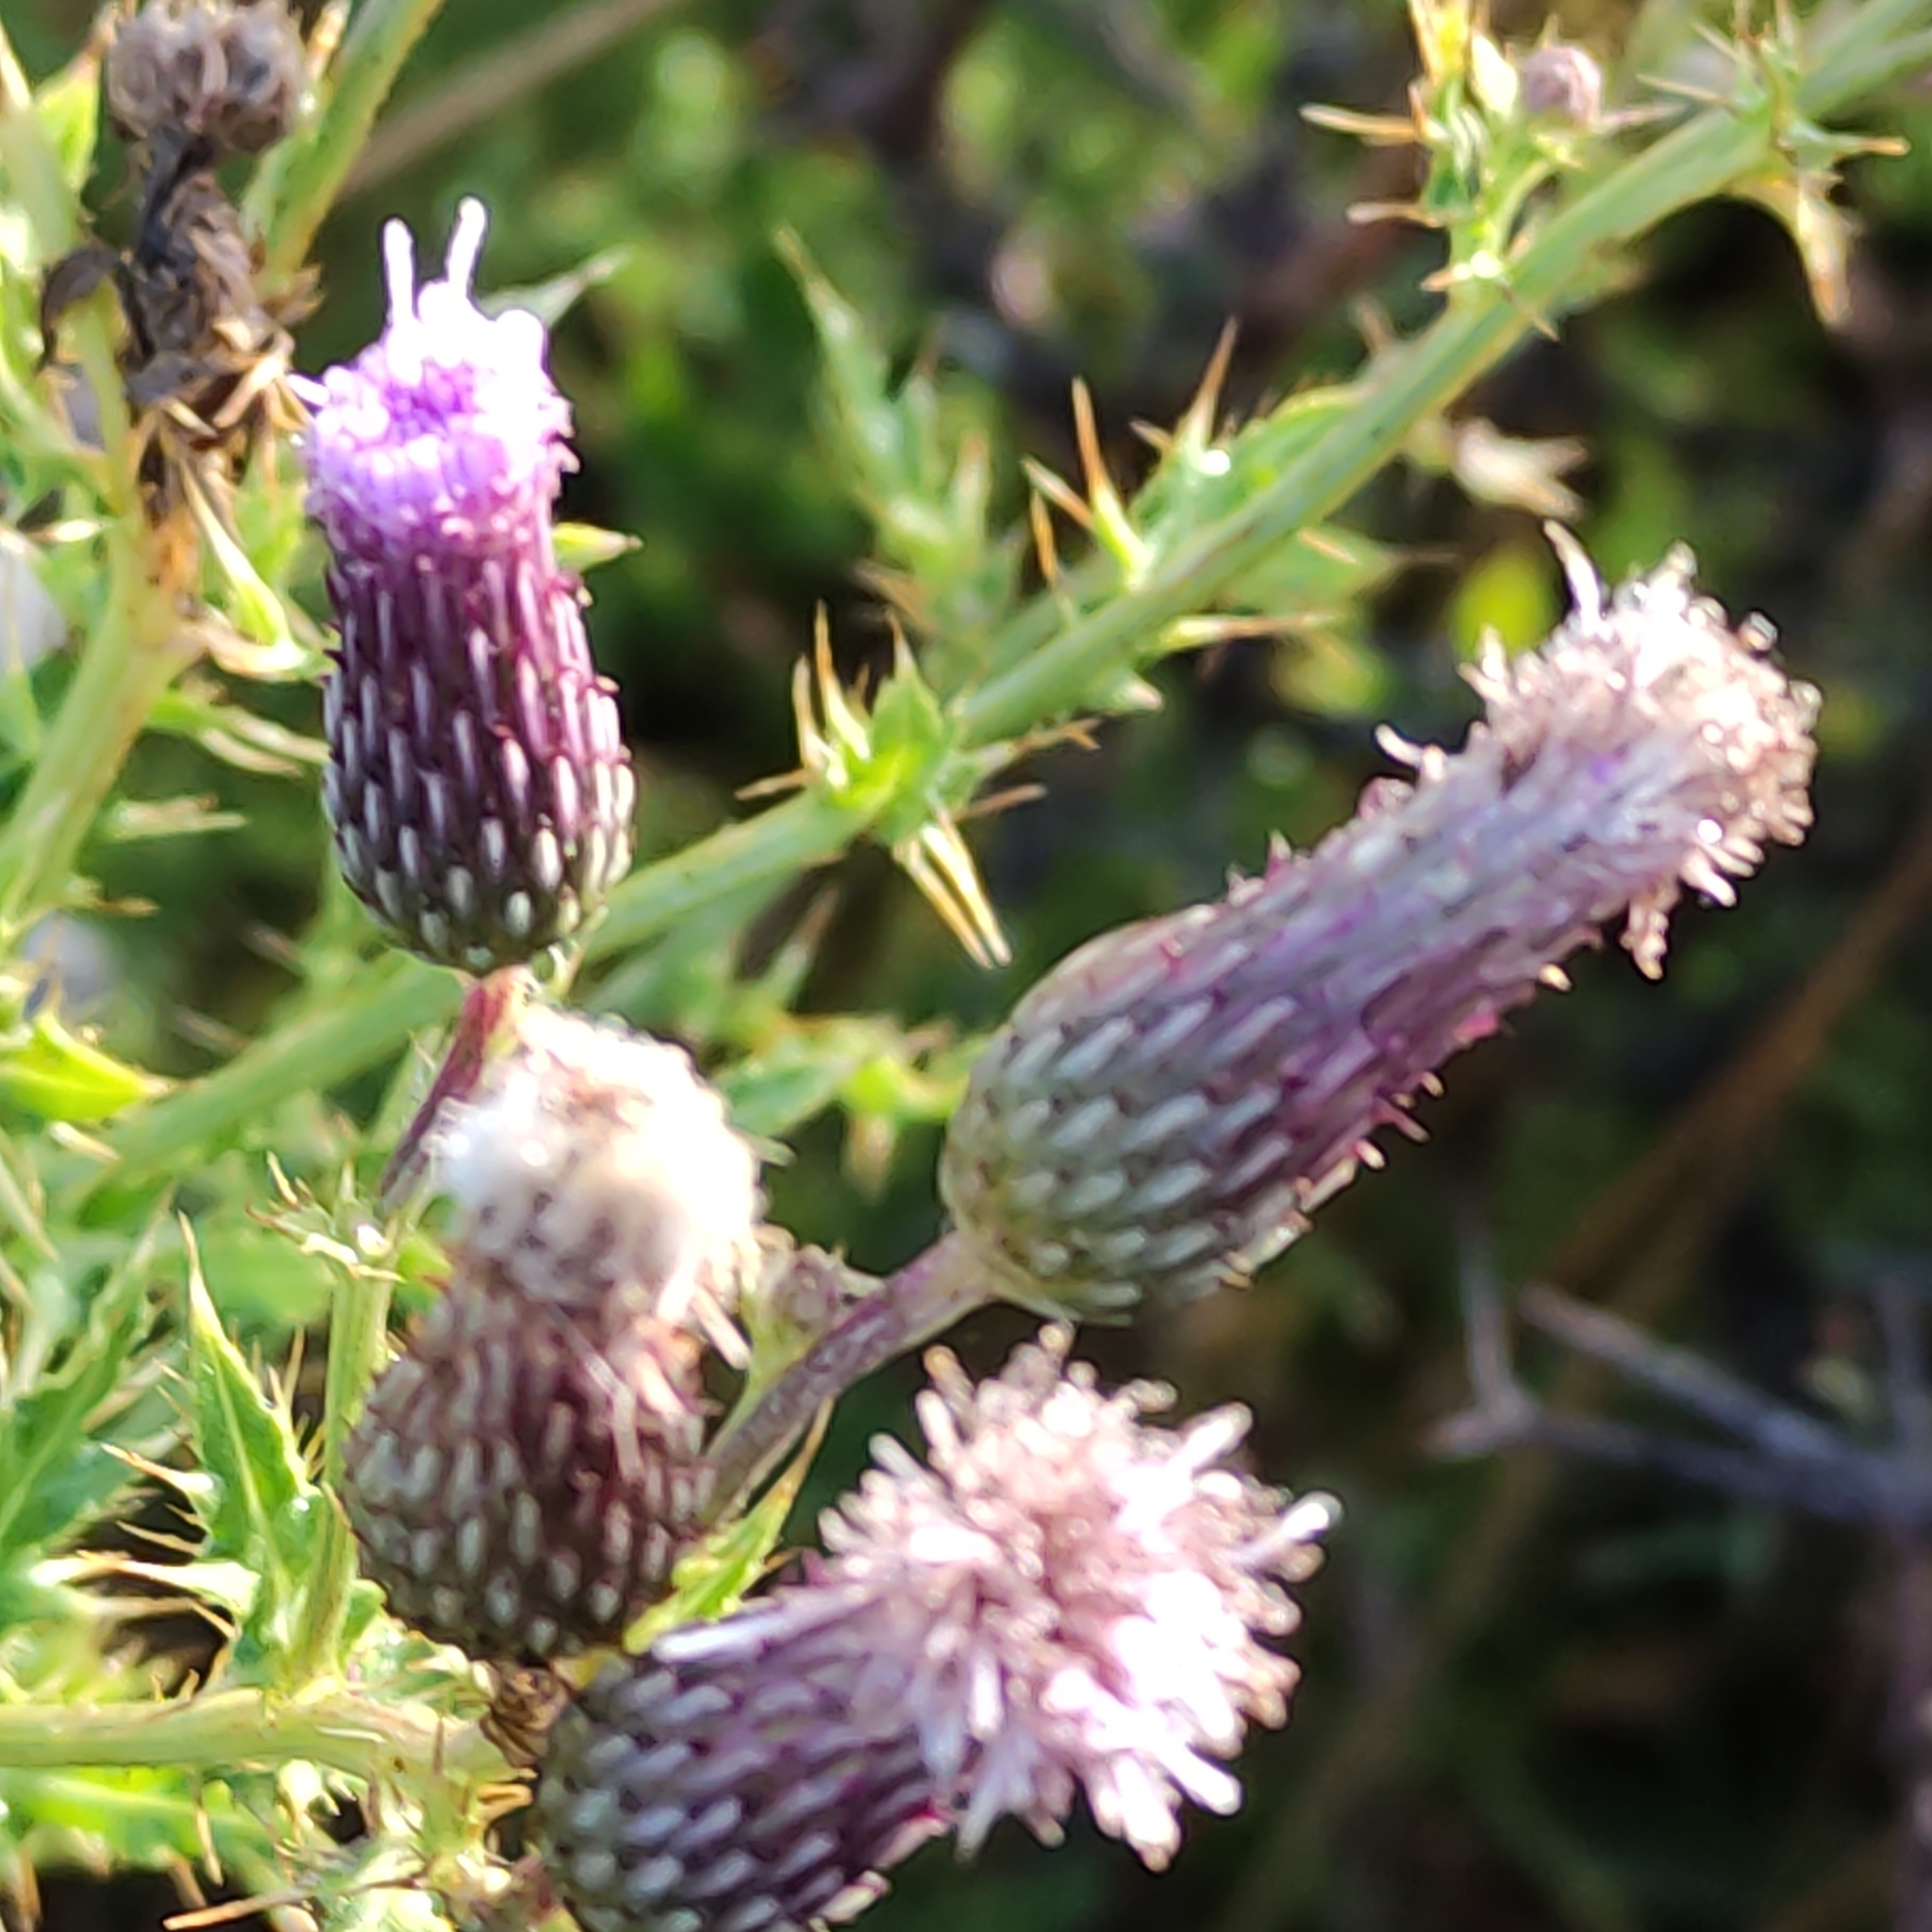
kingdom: Plantae
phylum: Tracheophyta
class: Magnoliopsida
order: Asterales
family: Asteraceae
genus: Cirsium
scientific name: Cirsium arvense
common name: Creeping thistle
